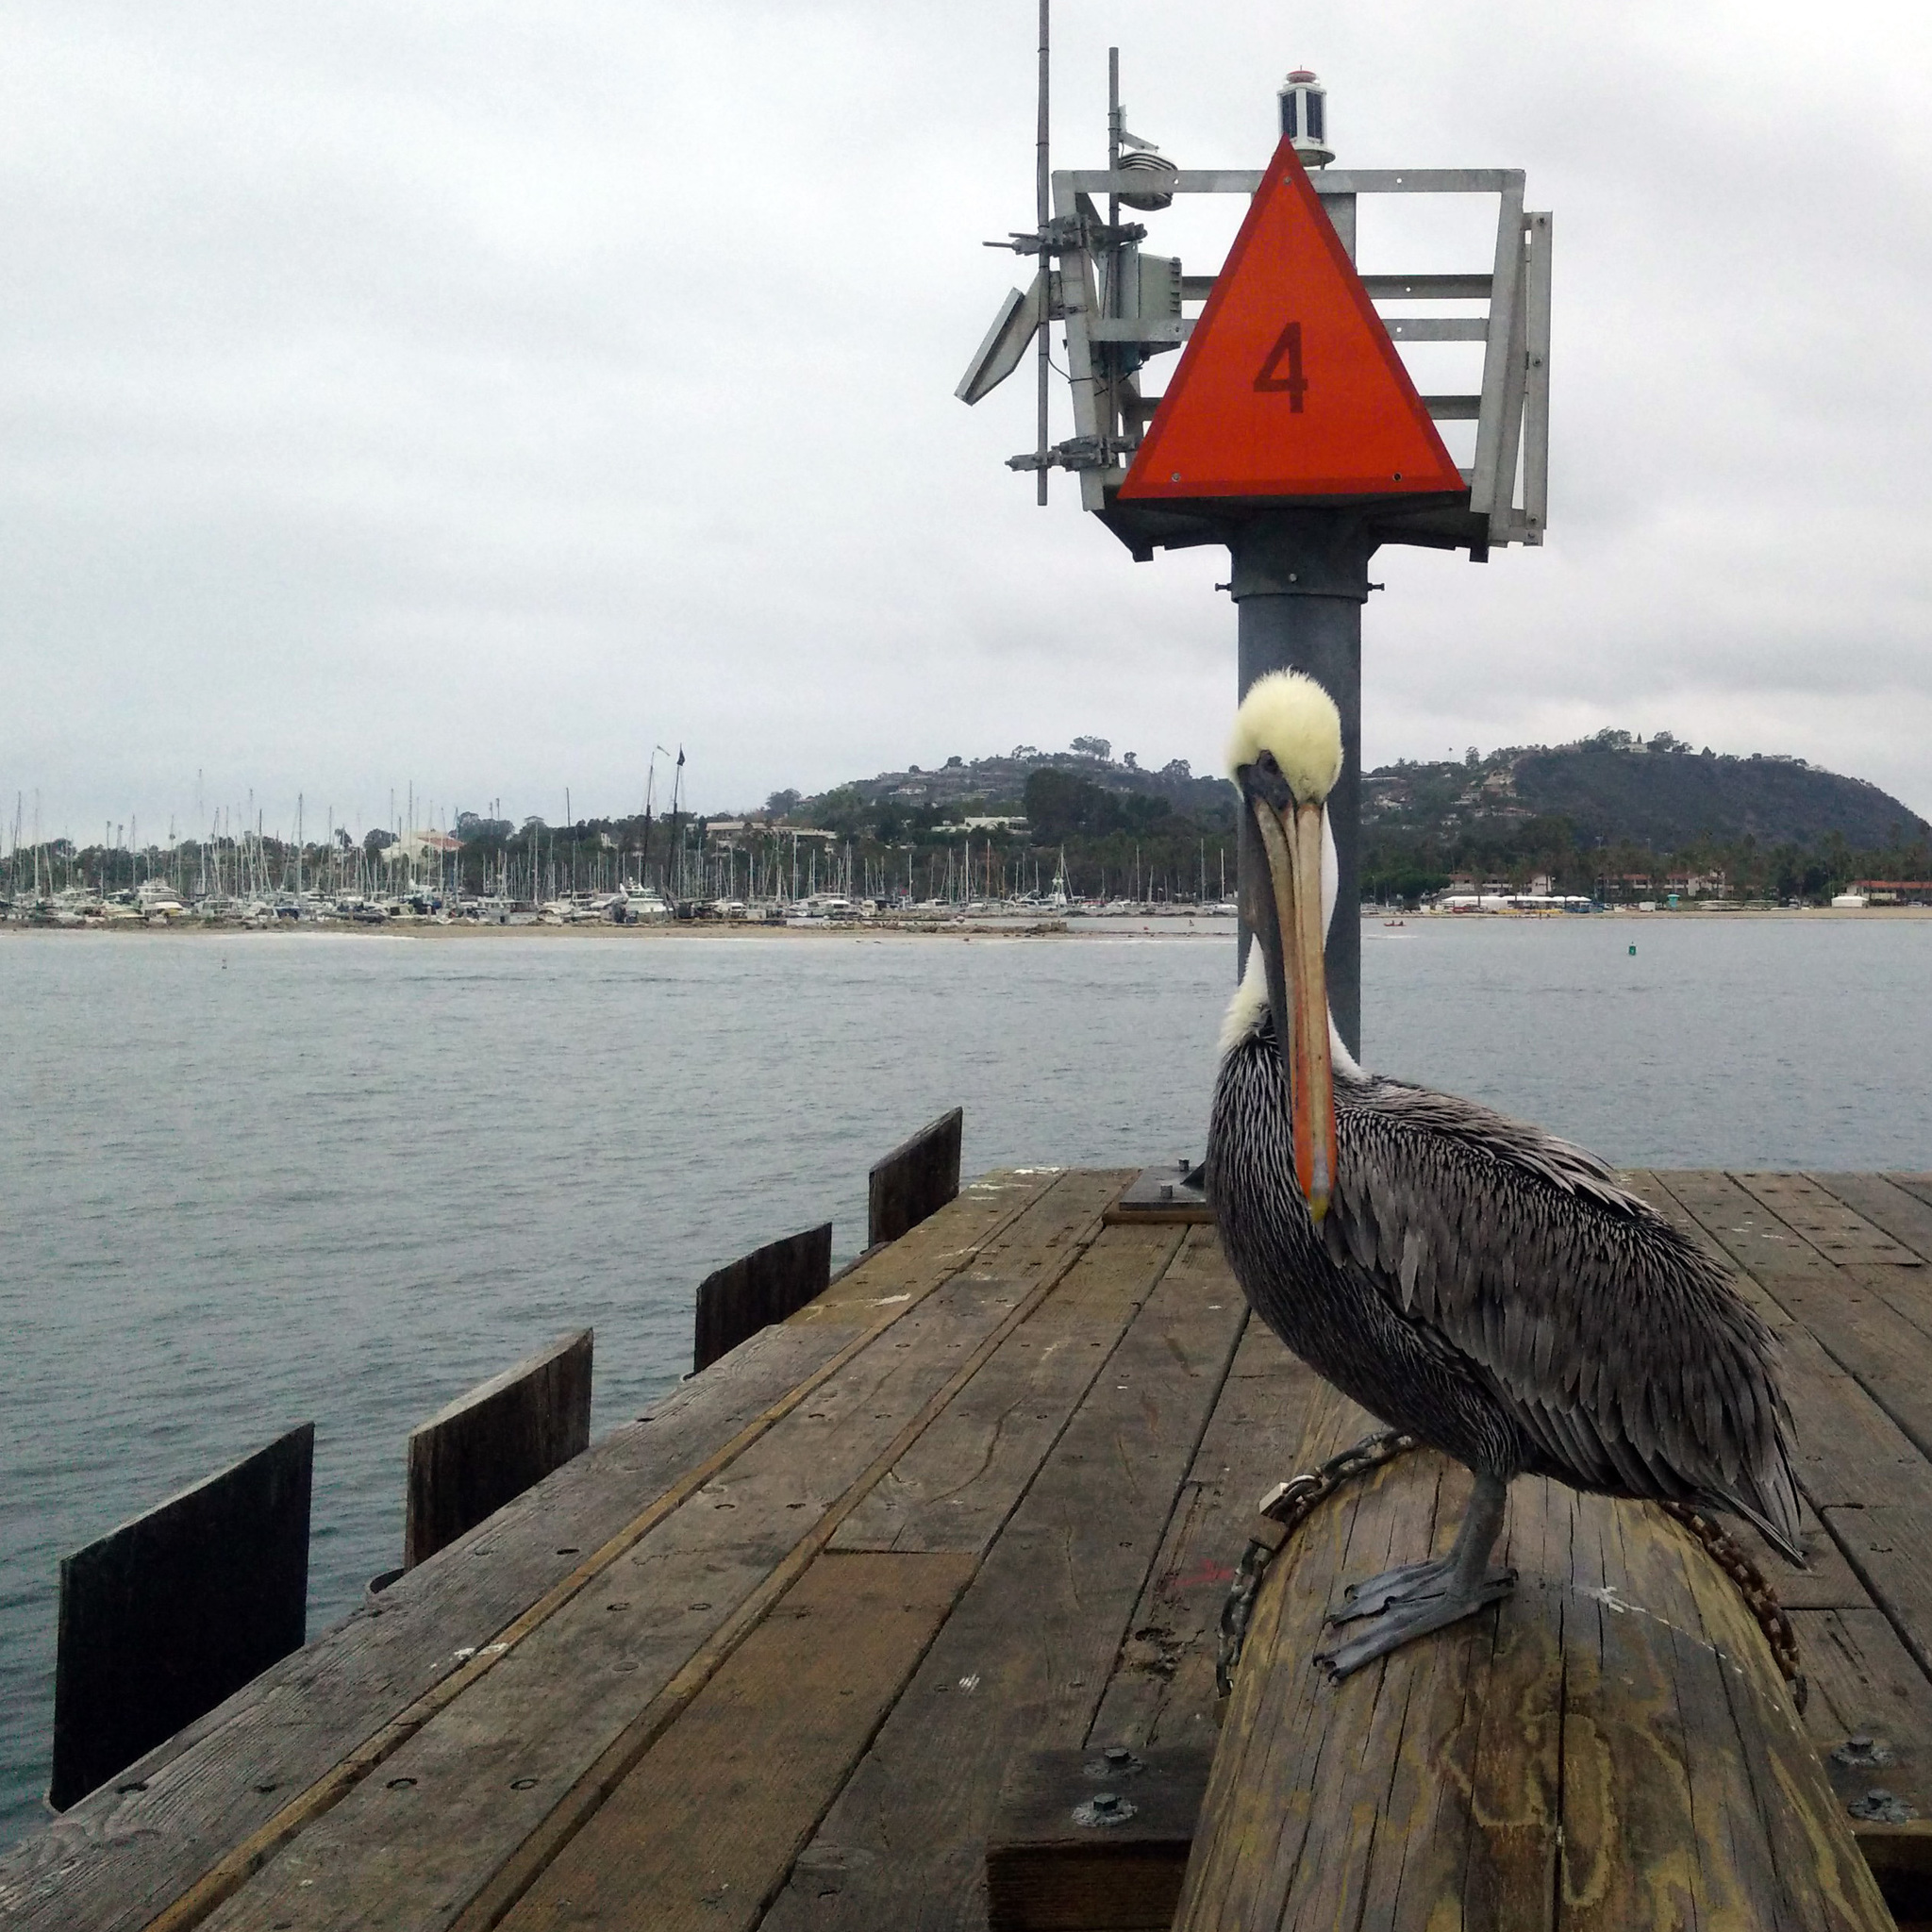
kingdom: Animalia
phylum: Chordata
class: Aves
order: Pelecaniformes
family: Pelecanidae
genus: Pelecanus
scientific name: Pelecanus occidentalis
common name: Brown pelican
